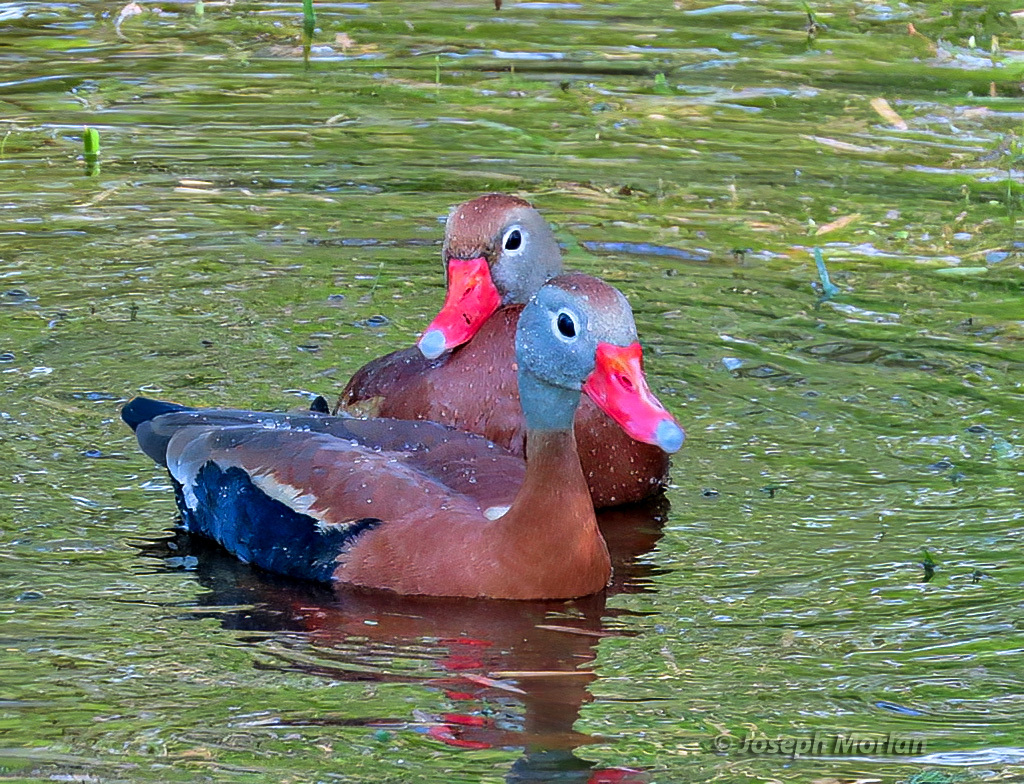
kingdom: Animalia
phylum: Chordata
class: Aves
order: Anseriformes
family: Anatidae
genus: Dendrocygna
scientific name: Dendrocygna autumnalis
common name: Black-bellied whistling duck
